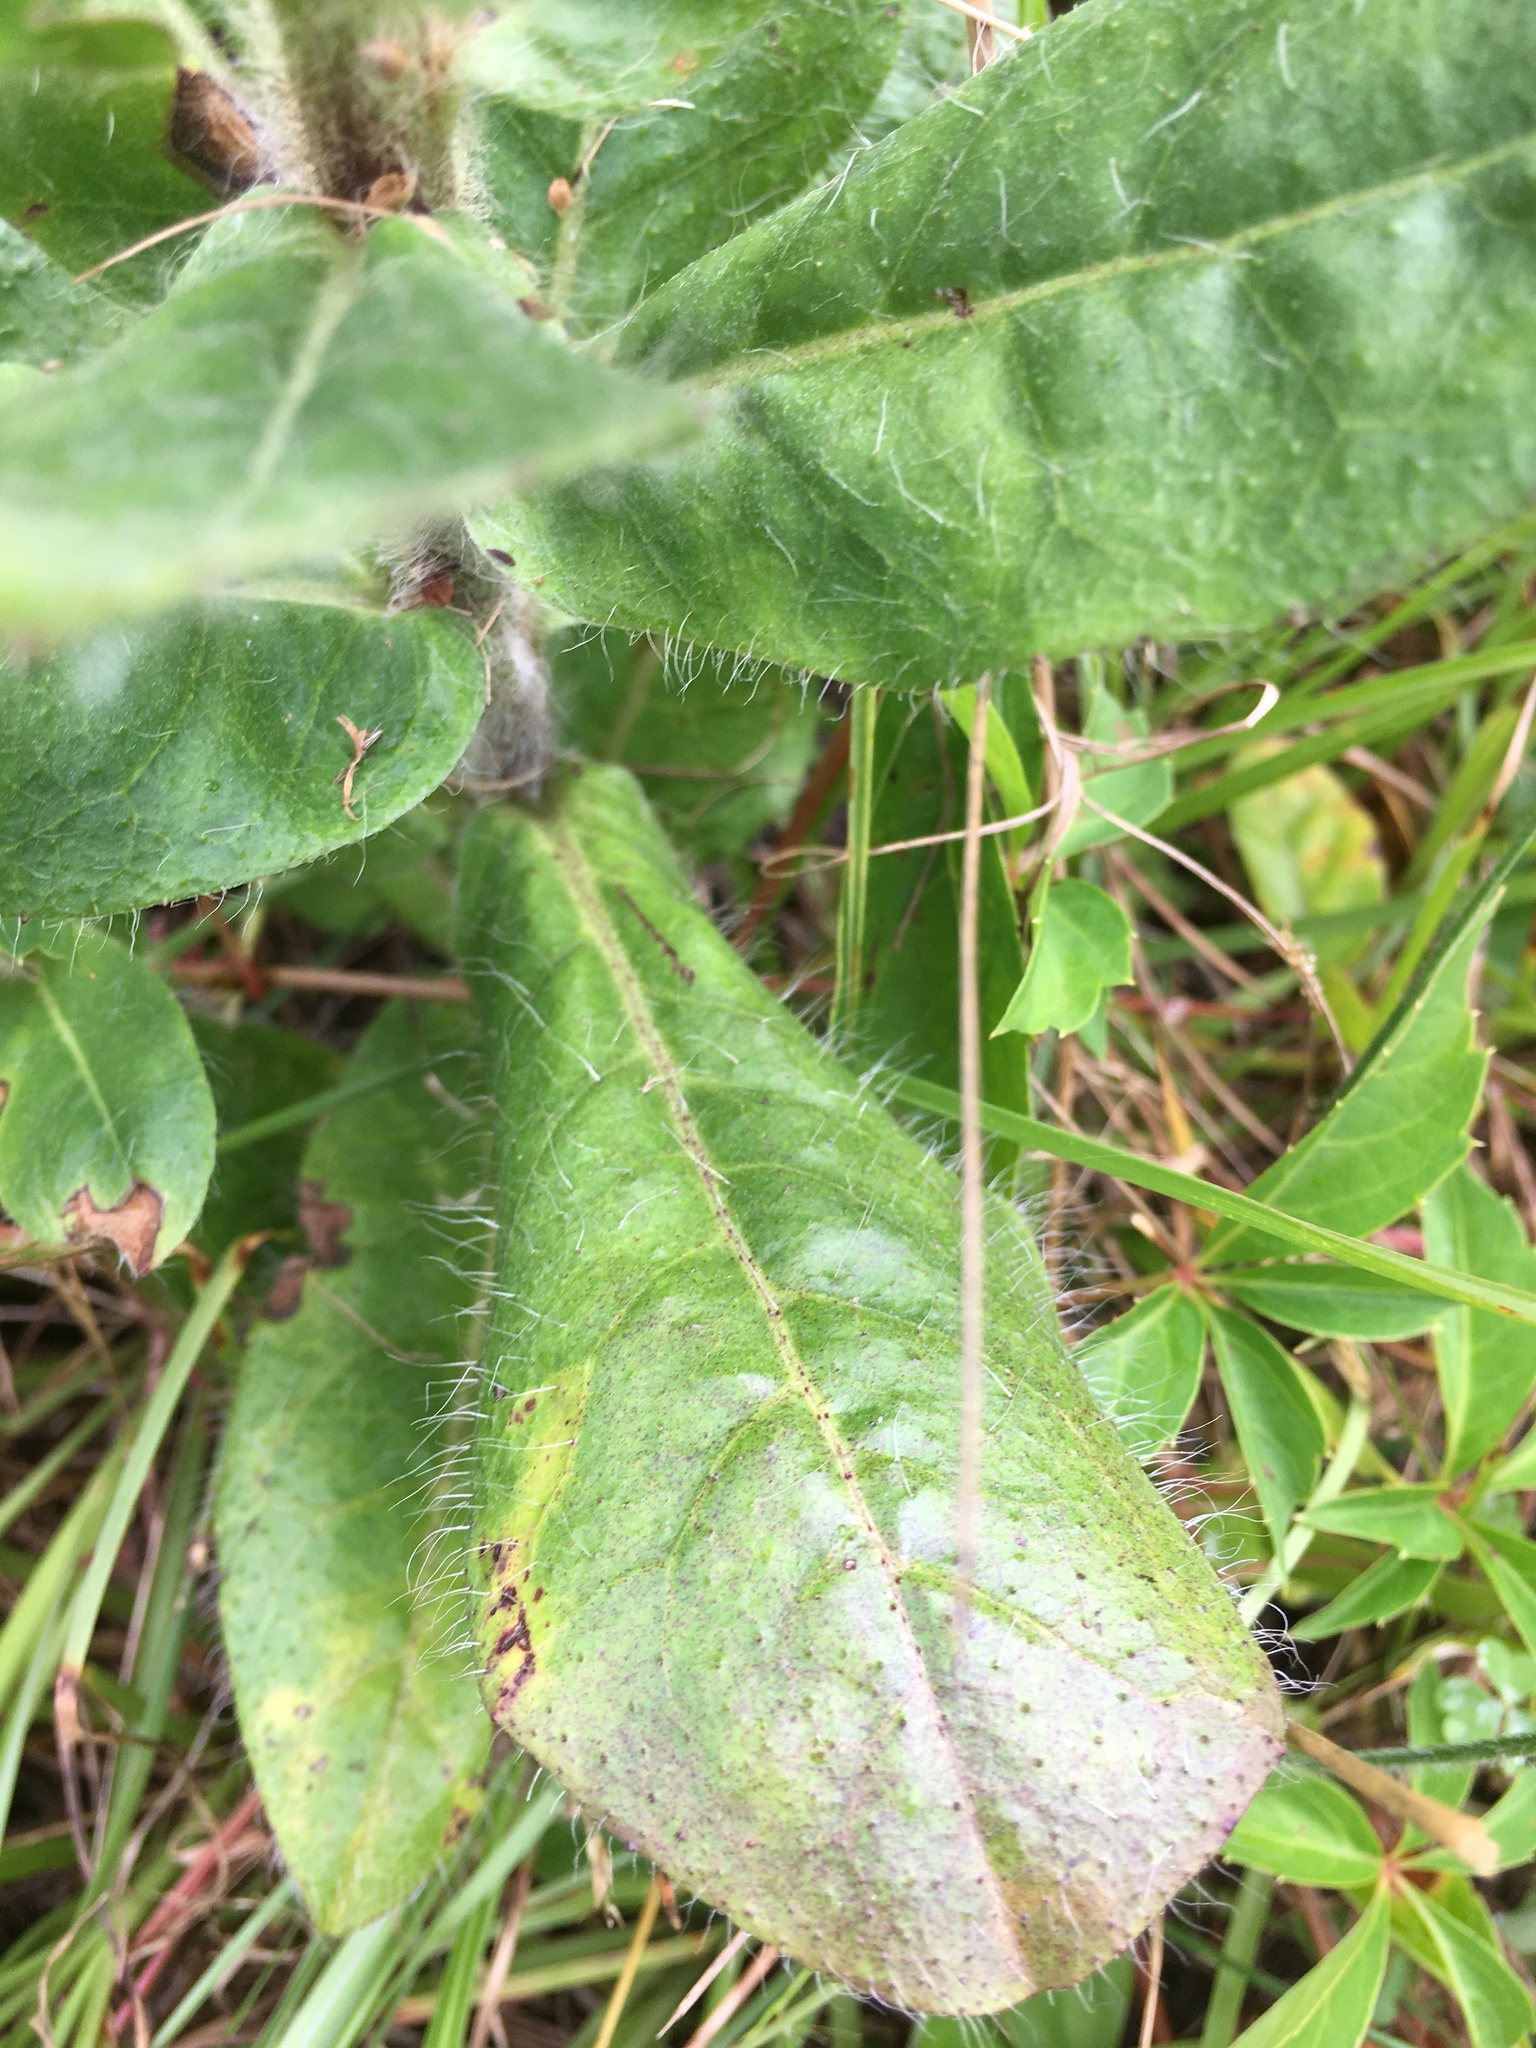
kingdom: Plantae
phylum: Tracheophyta
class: Magnoliopsida
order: Asterales
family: Asteraceae
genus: Hieracium
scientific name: Hieracium gronovii
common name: Beaked hawkweed
